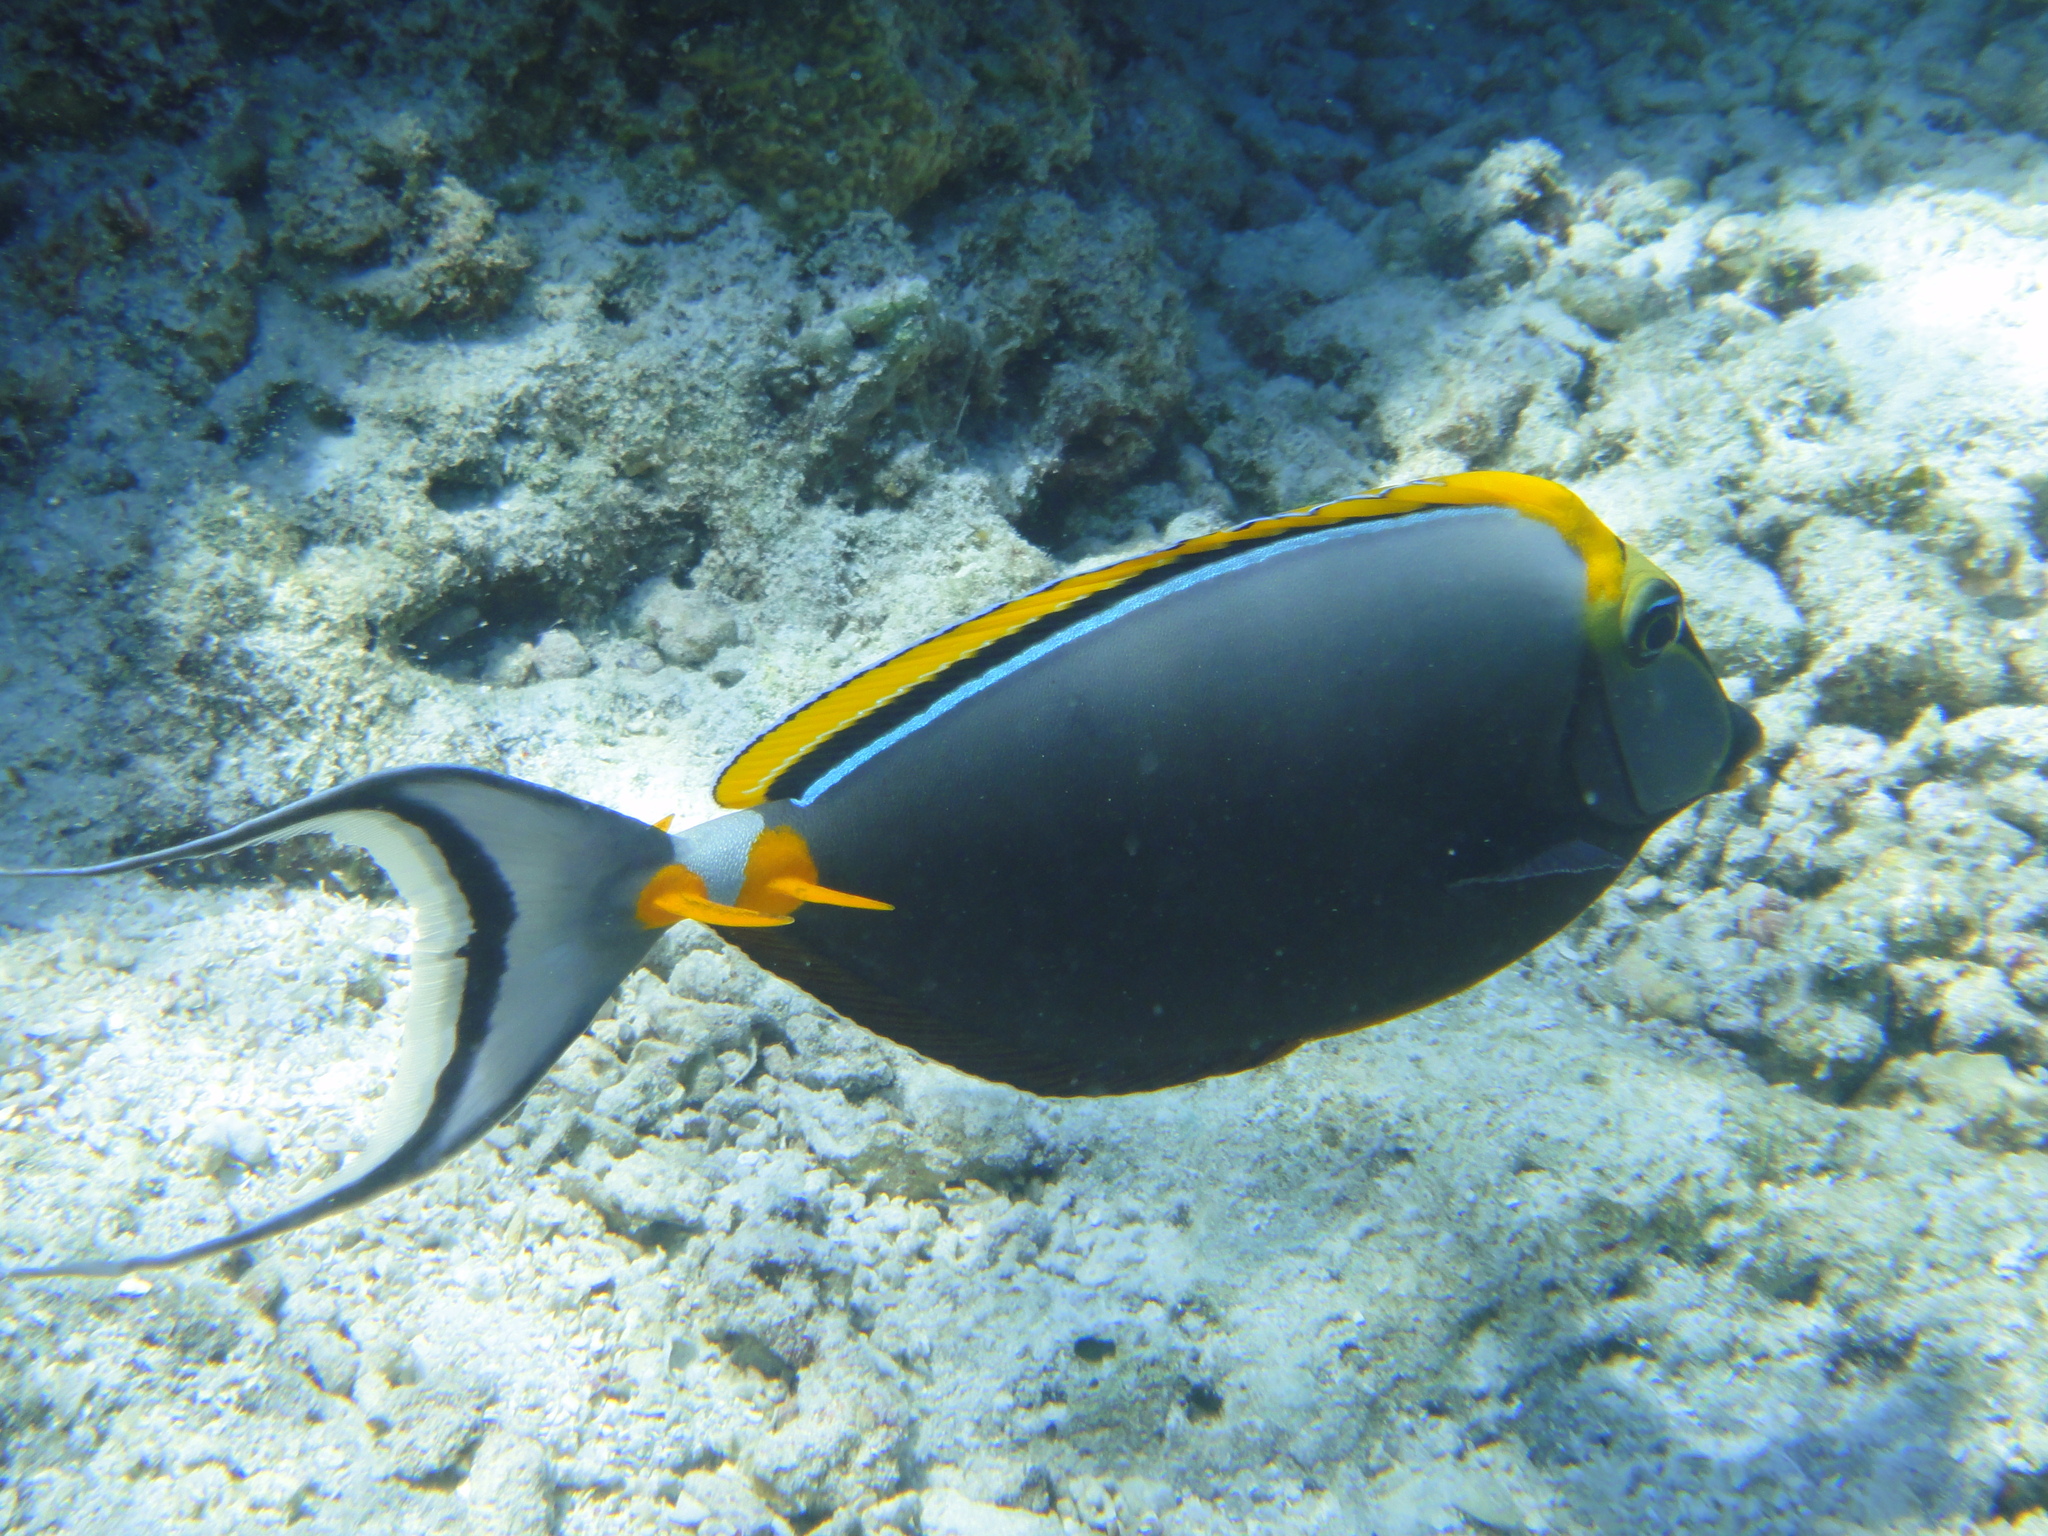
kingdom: Animalia
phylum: Chordata
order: Perciformes
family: Acanthuridae
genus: Naso
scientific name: Naso elegans
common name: Orangespine unicornfish
